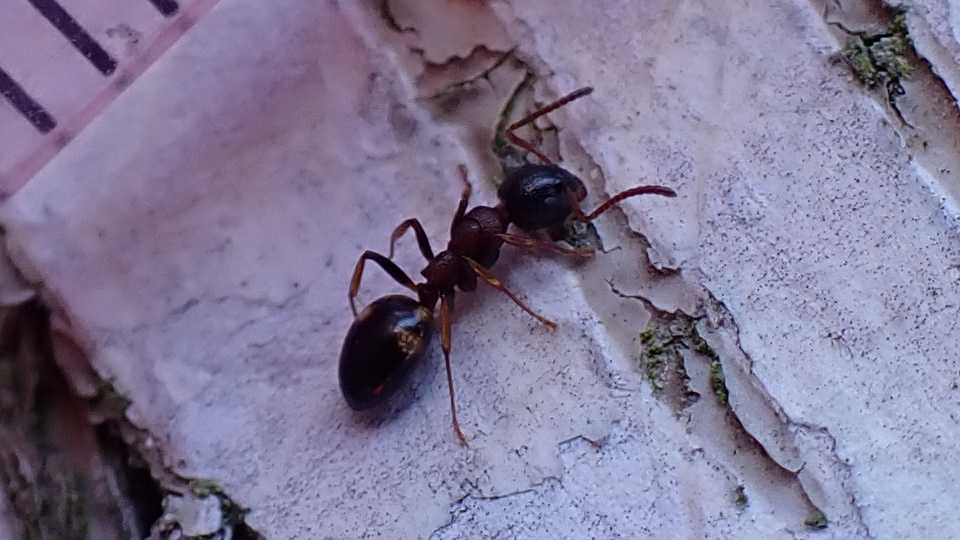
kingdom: Animalia
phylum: Arthropoda
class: Insecta
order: Hymenoptera
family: Formicidae
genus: Dolichoderus
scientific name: Dolichoderus quadripunctatus
